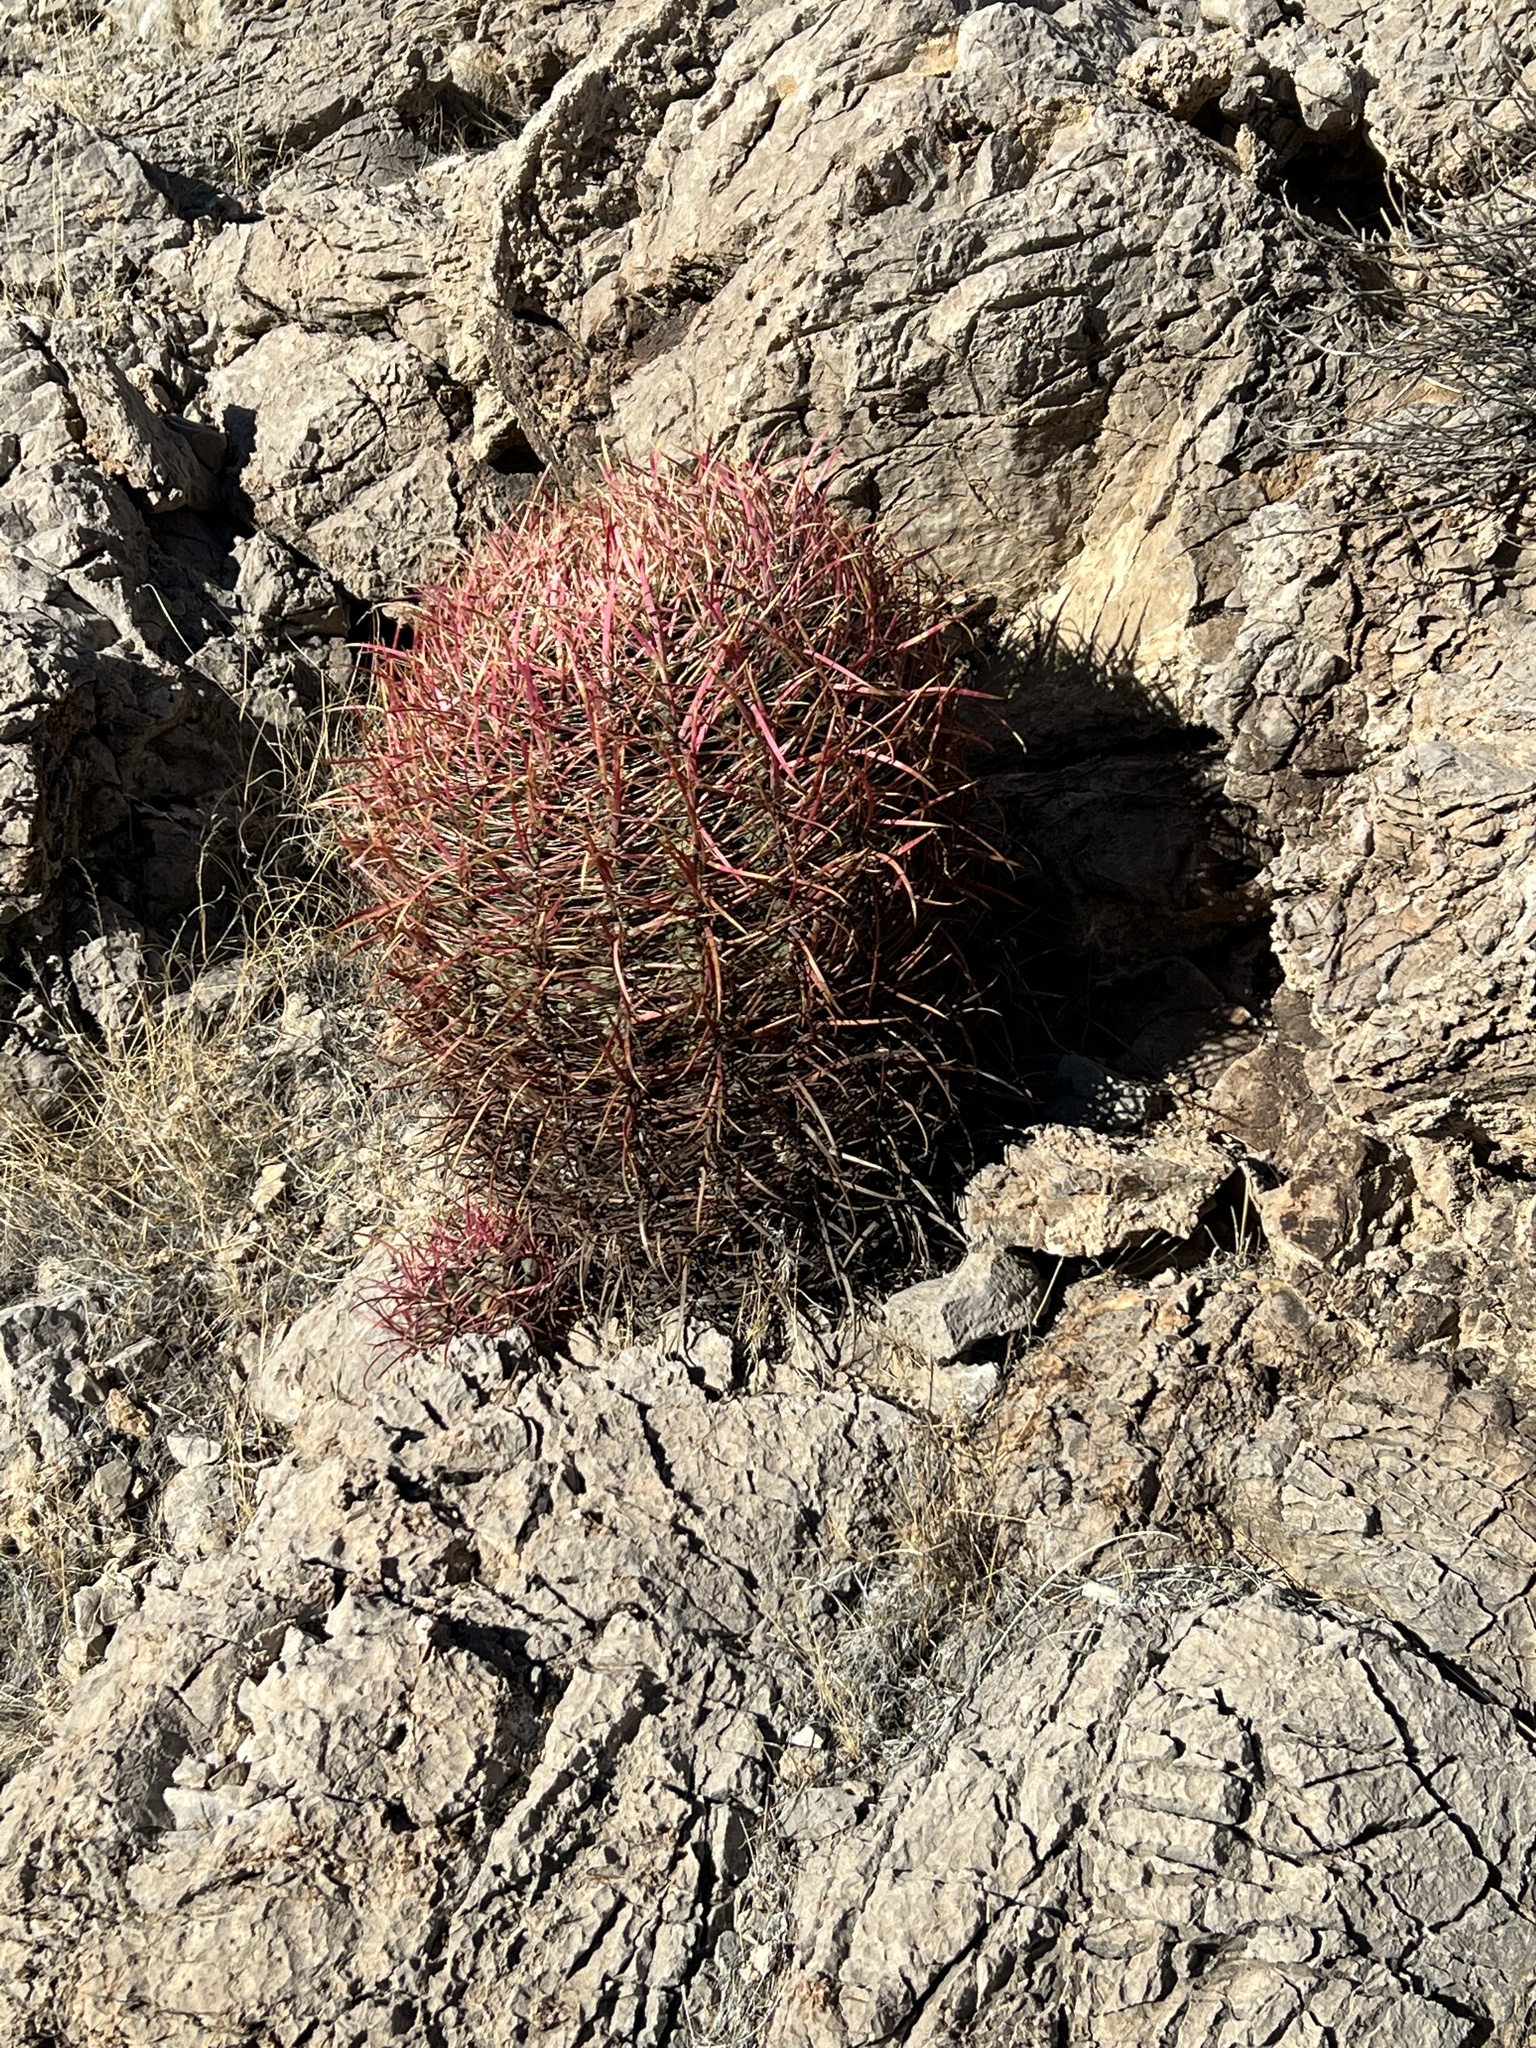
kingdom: Plantae
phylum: Tracheophyta
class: Magnoliopsida
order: Caryophyllales
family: Cactaceae
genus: Ferocactus
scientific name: Ferocactus cylindraceus
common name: California barrel cactus
